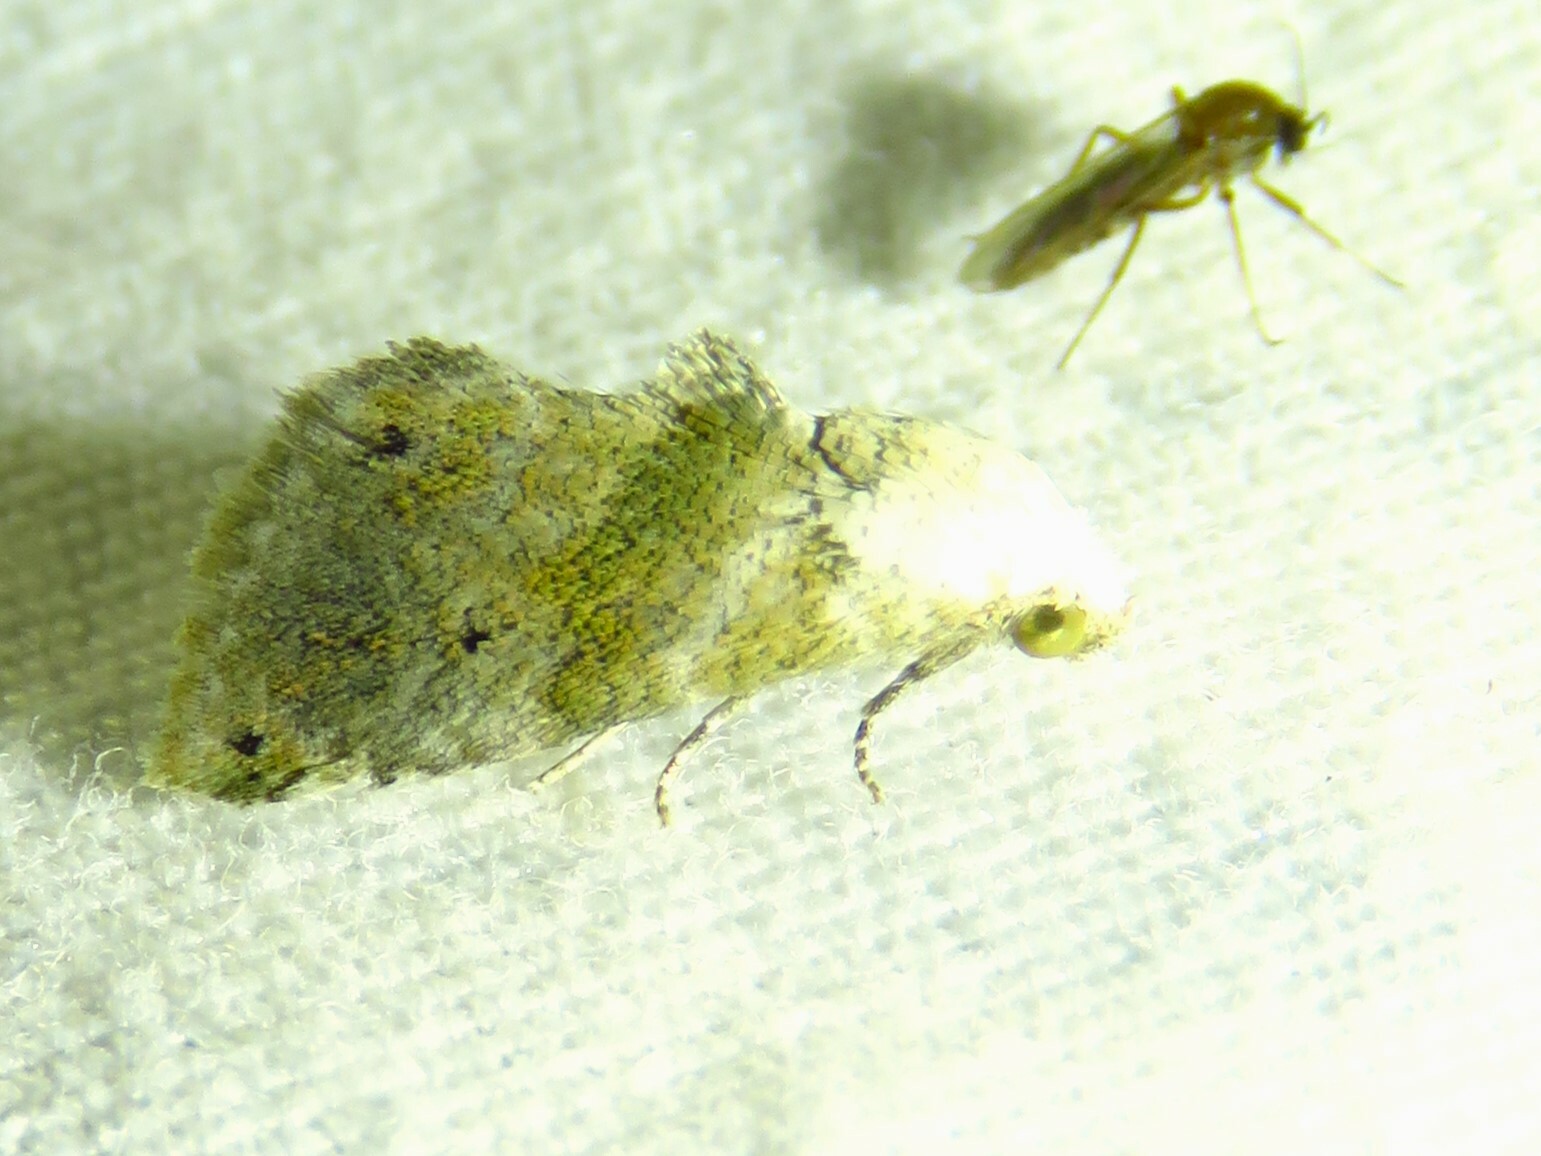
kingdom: Animalia
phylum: Arthropoda
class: Insecta
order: Lepidoptera
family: Noctuidae
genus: Eublemma
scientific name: Eublemma minima
